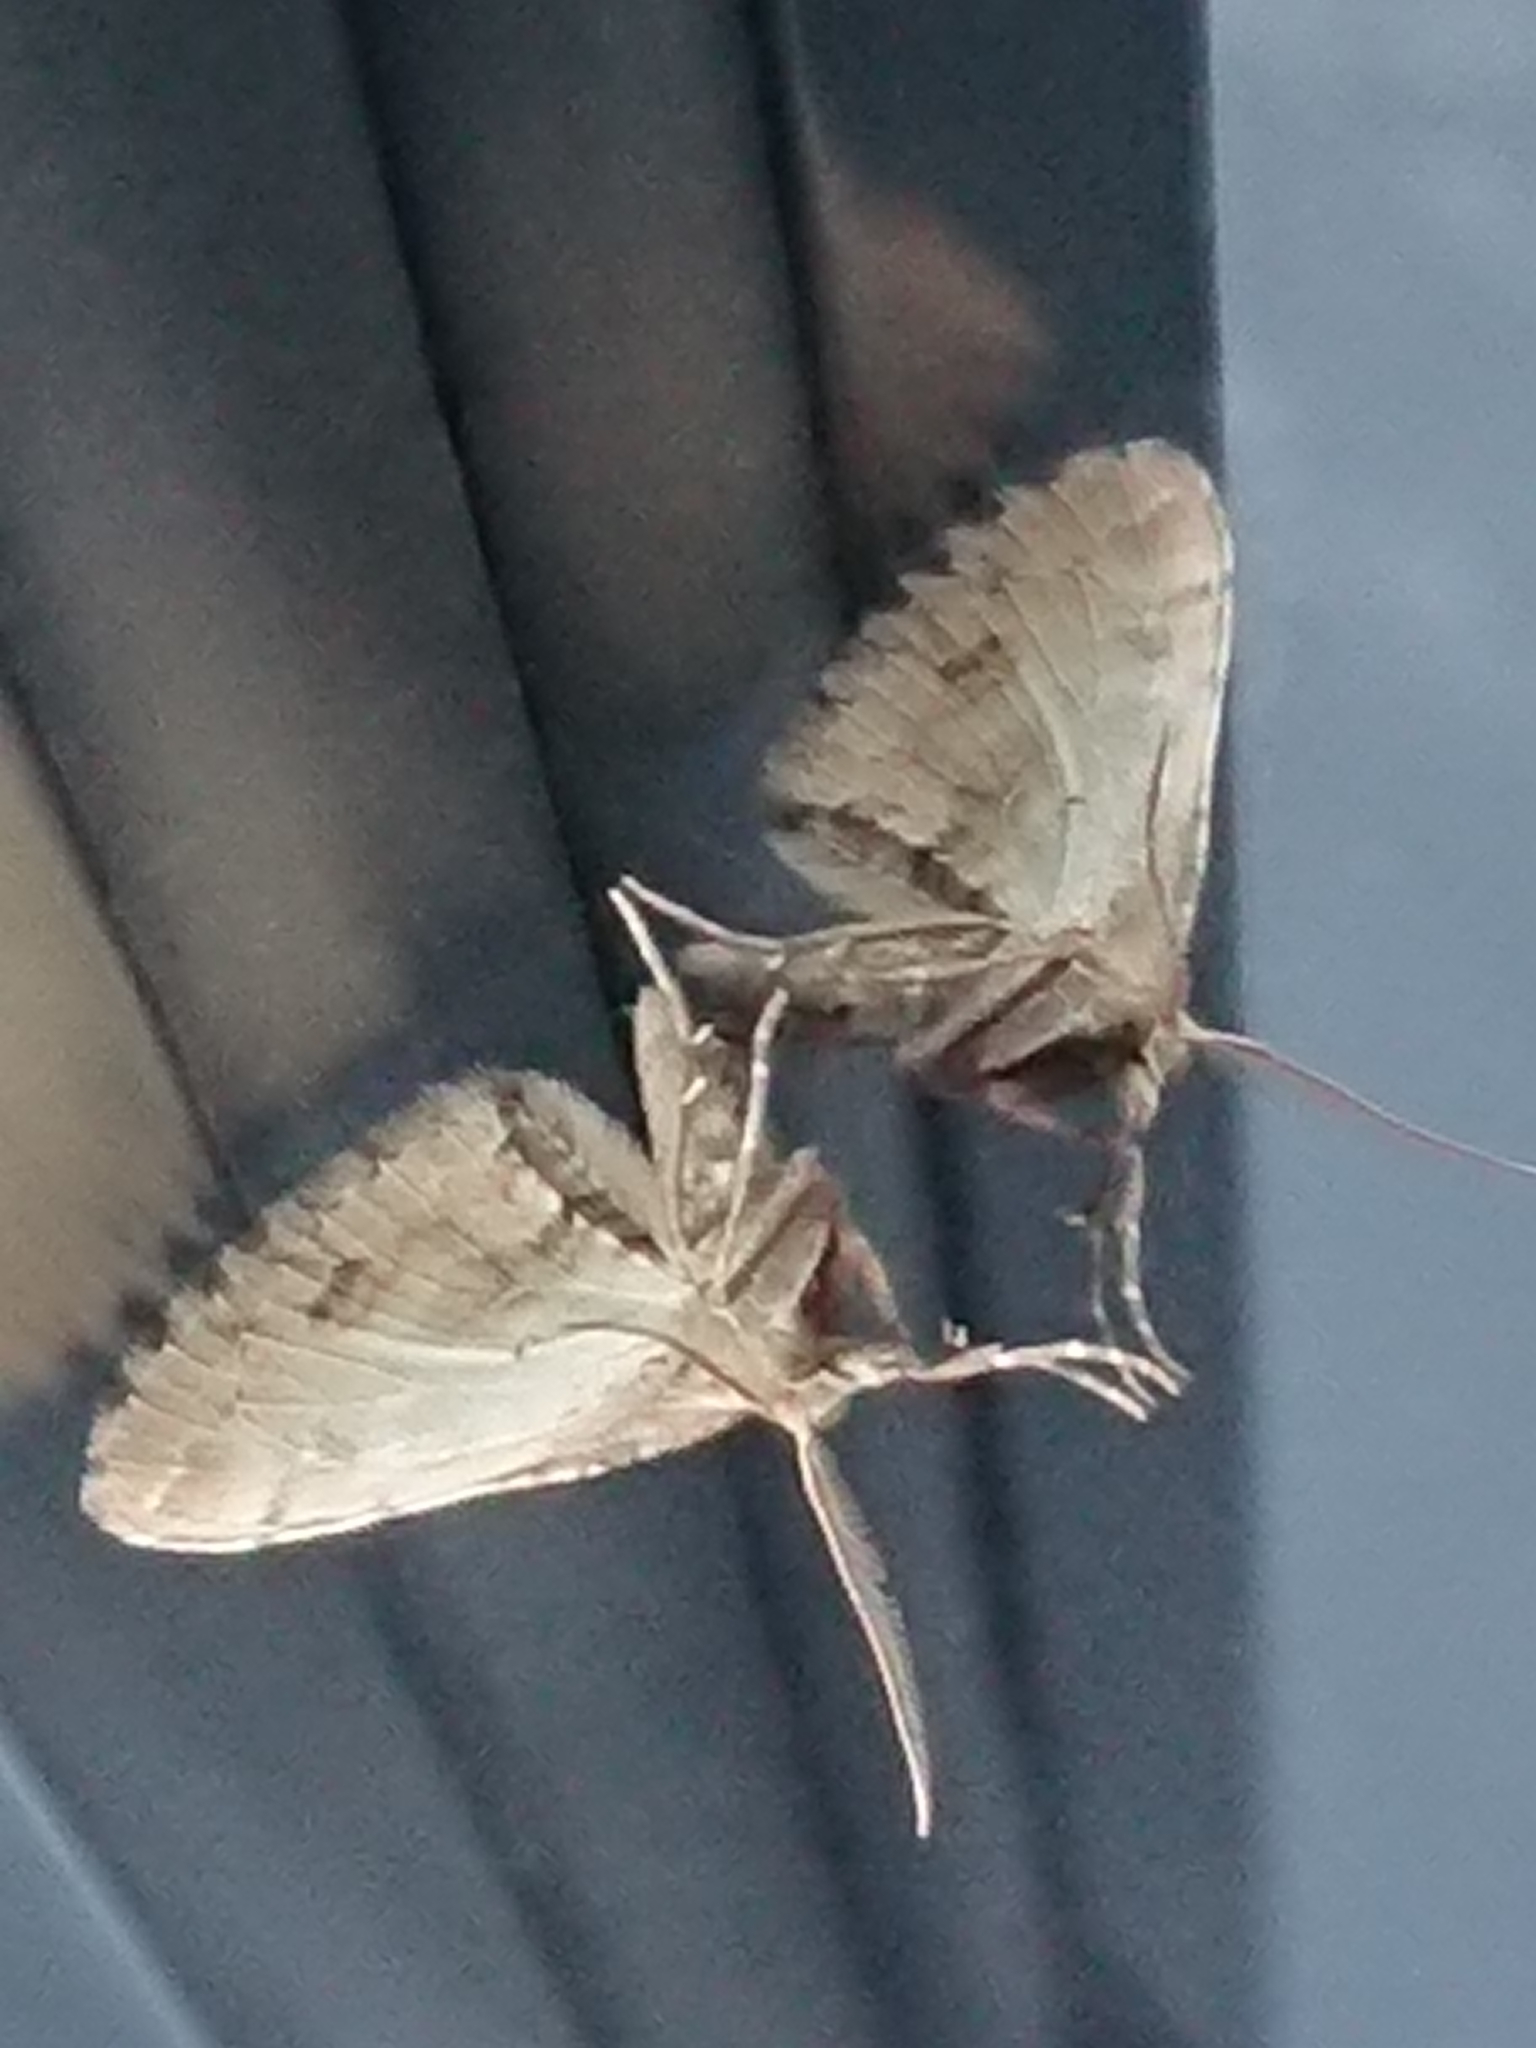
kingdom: Animalia
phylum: Arthropoda
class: Insecta
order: Lepidoptera
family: Geometridae
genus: Asaphodes
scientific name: Asaphodes aegrota
